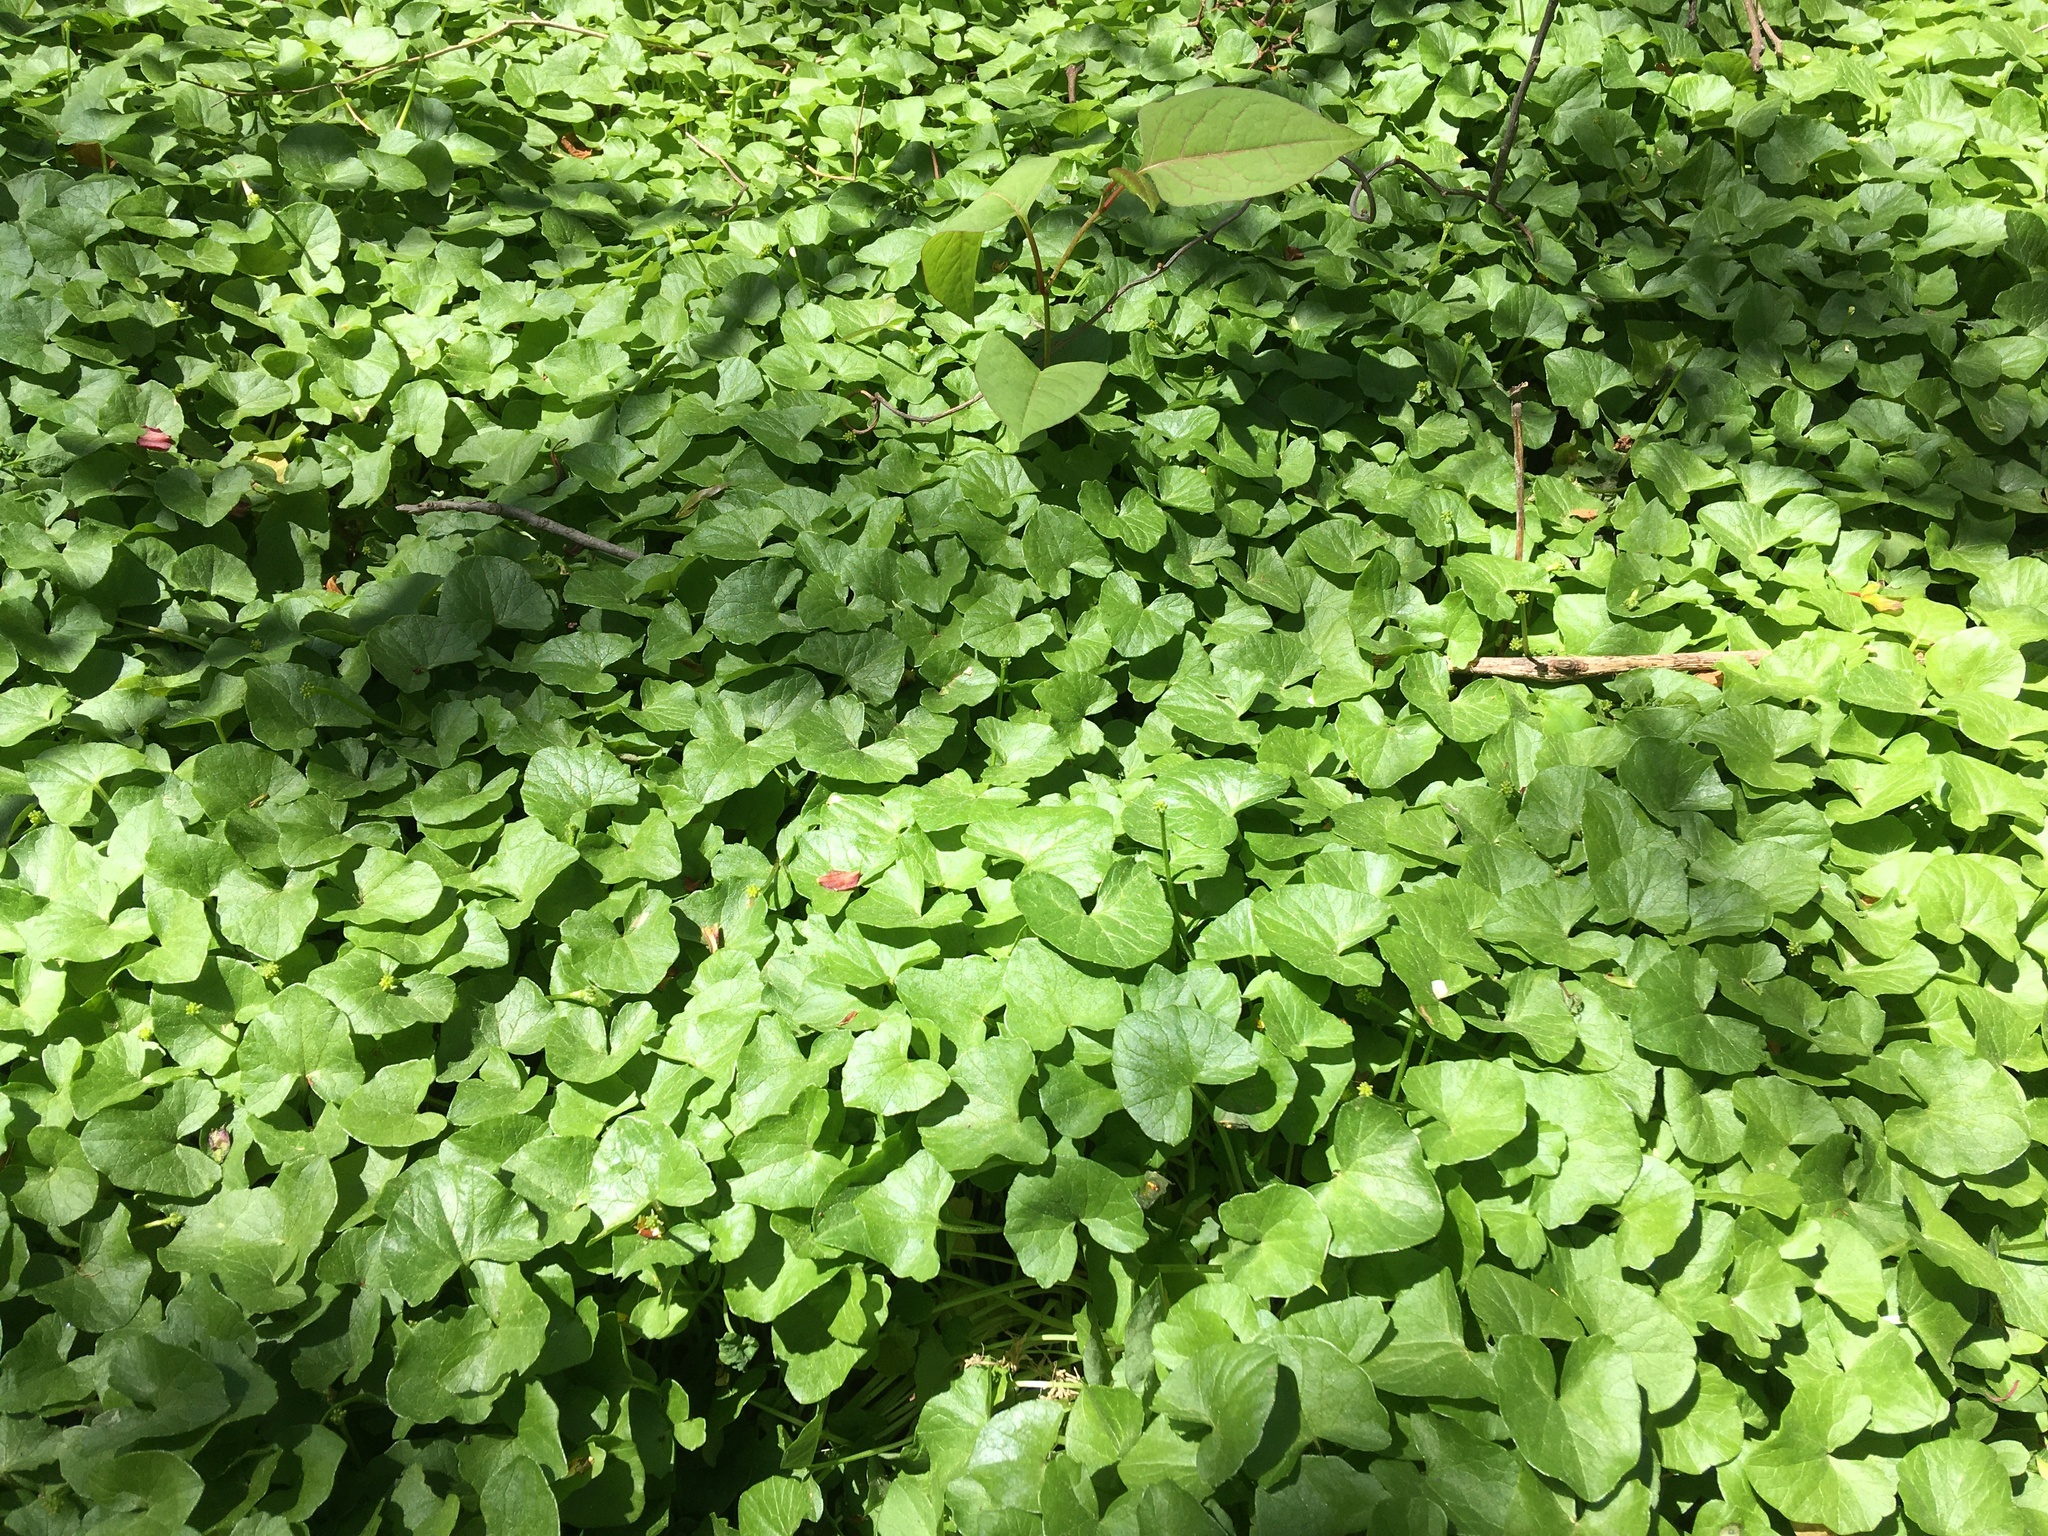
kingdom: Plantae
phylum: Tracheophyta
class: Magnoliopsida
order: Ranunculales
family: Ranunculaceae
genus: Ficaria
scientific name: Ficaria verna
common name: Lesser celandine
